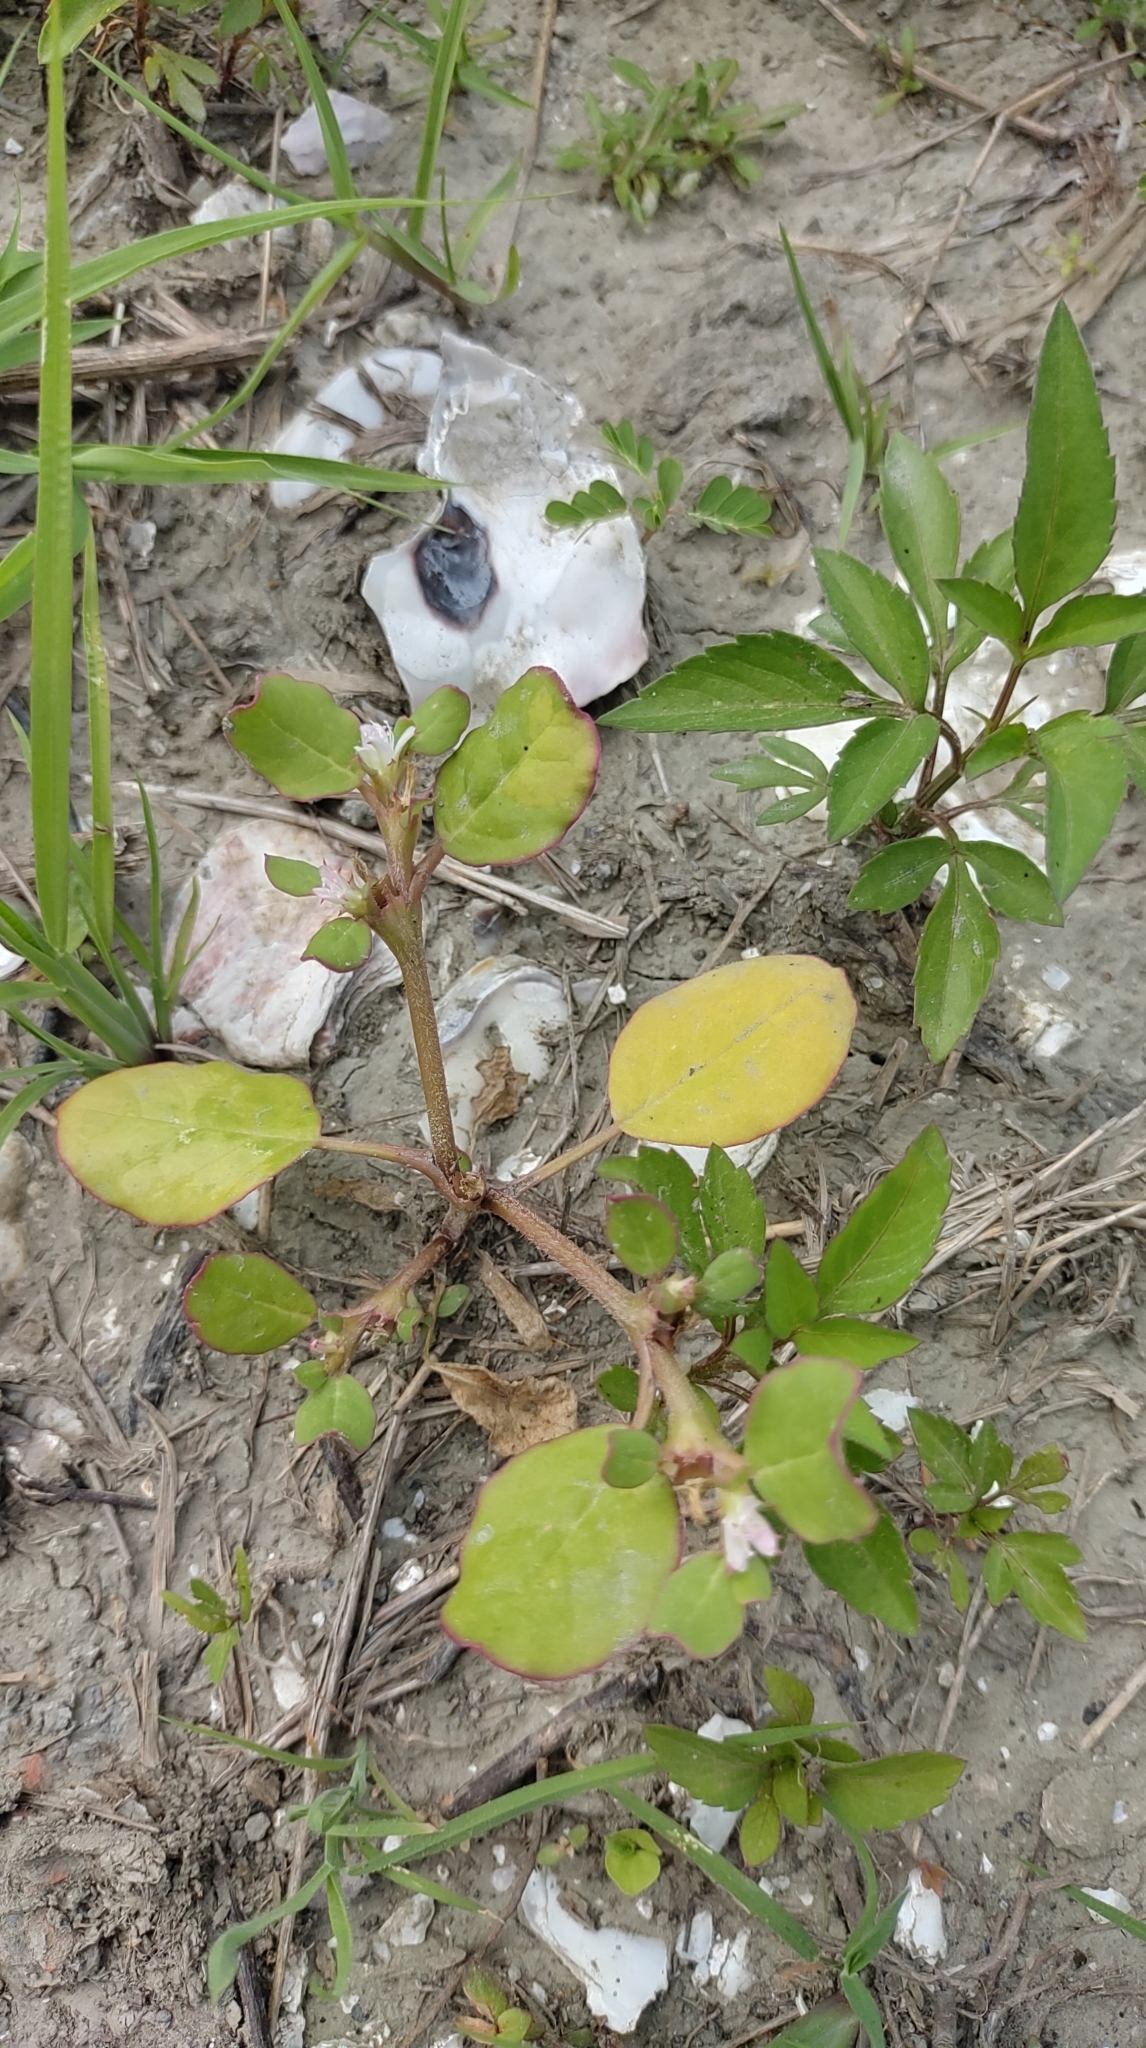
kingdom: Plantae
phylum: Tracheophyta
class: Magnoliopsida
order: Caryophyllales
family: Aizoaceae
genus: Trianthema
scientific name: Trianthema portulacastrum
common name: Desert horsepurslane
